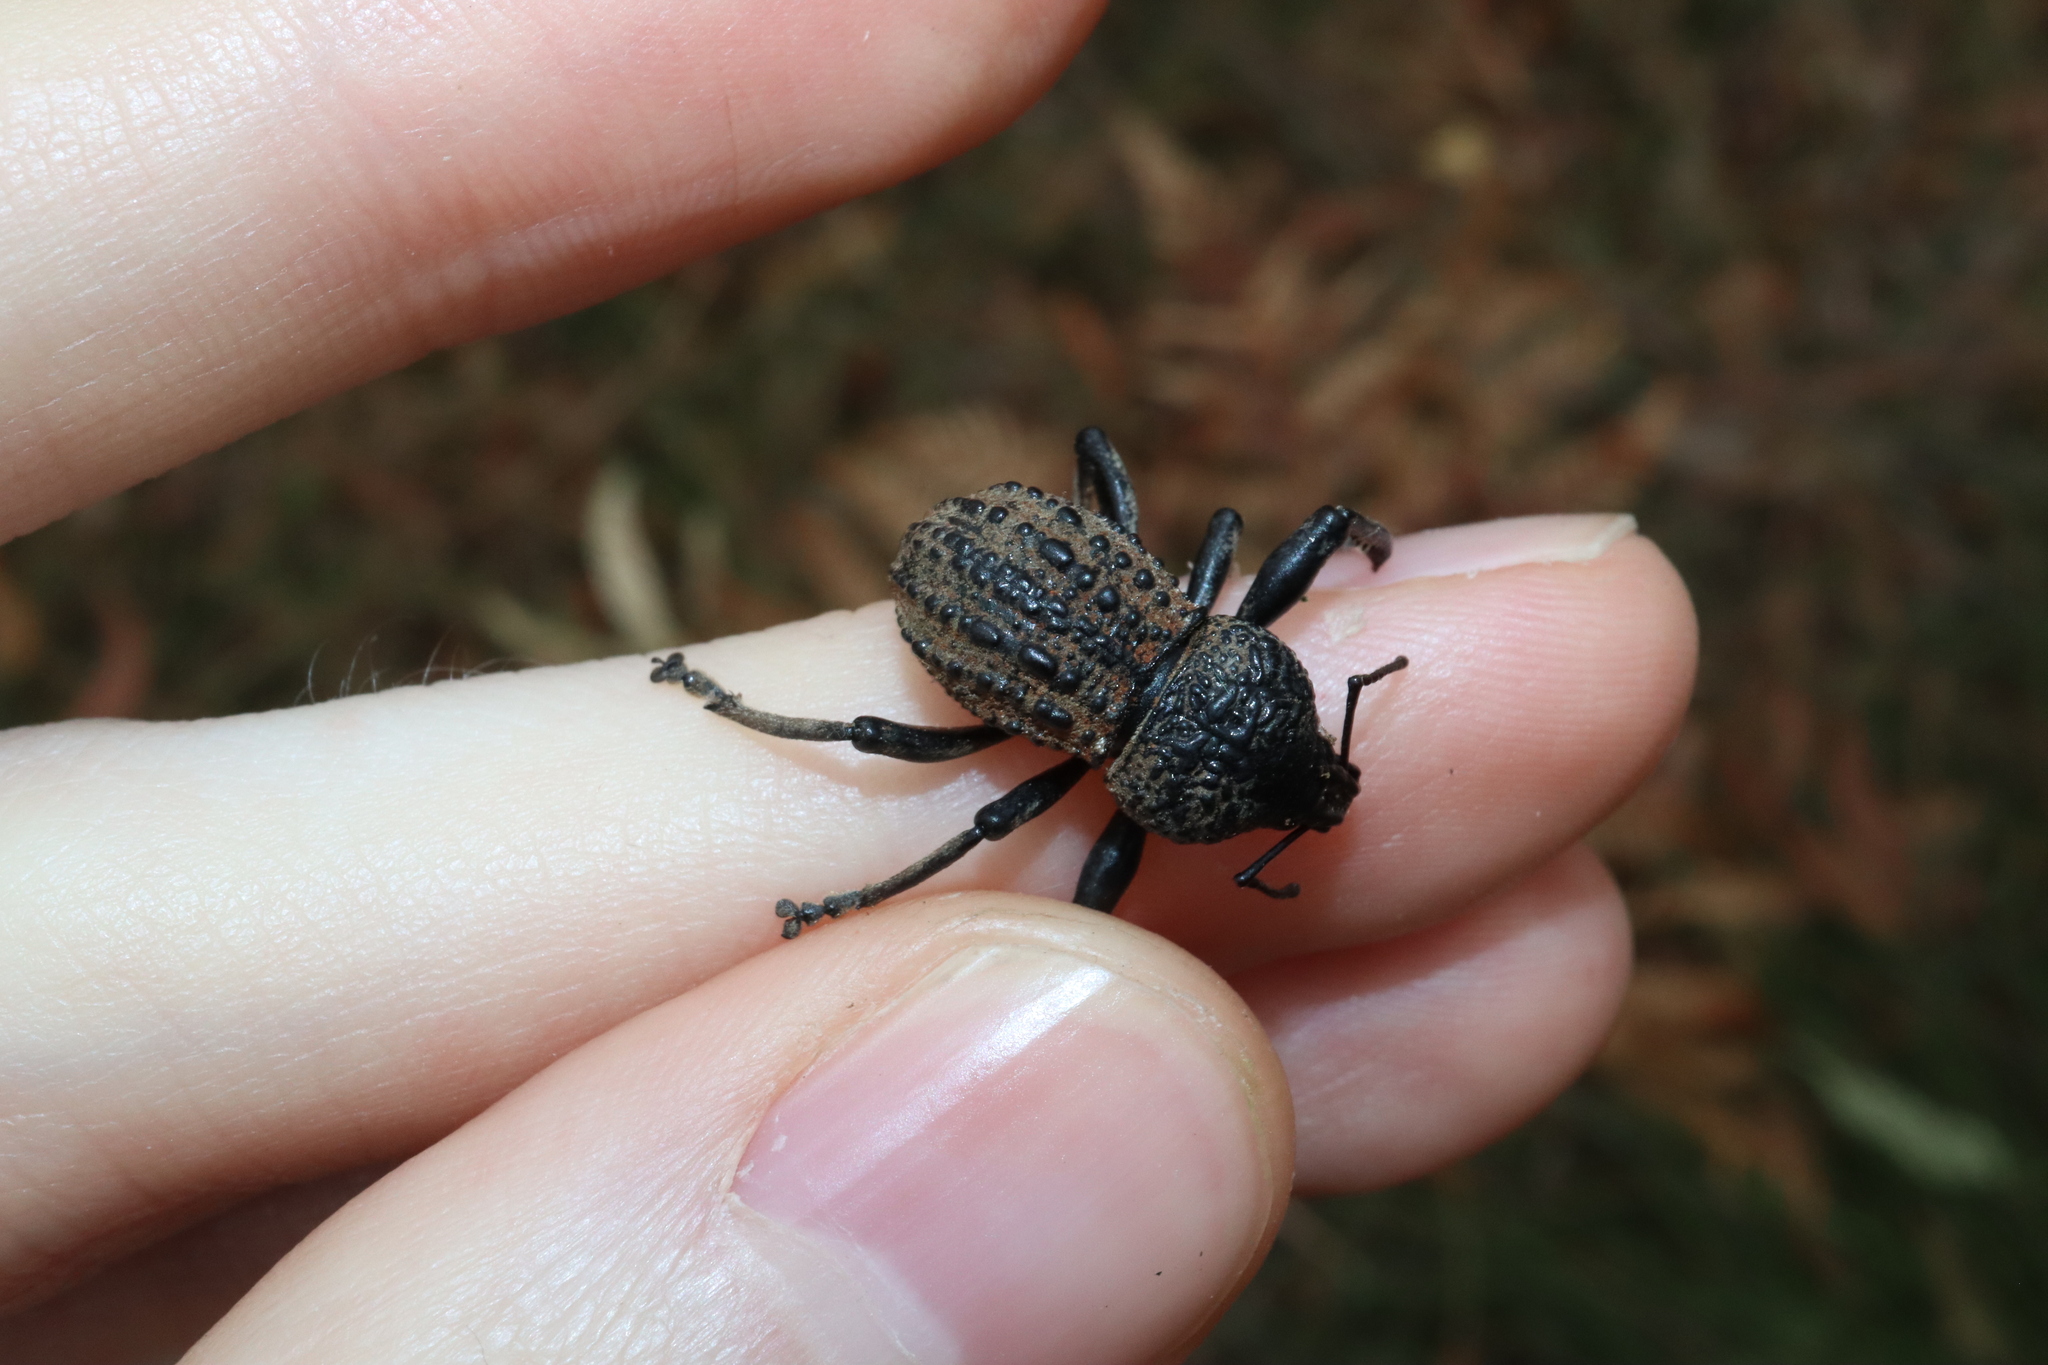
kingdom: Animalia
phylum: Arthropoda
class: Insecta
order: Coleoptera
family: Curculionidae
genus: Psapharus
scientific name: Psapharus infaustus
